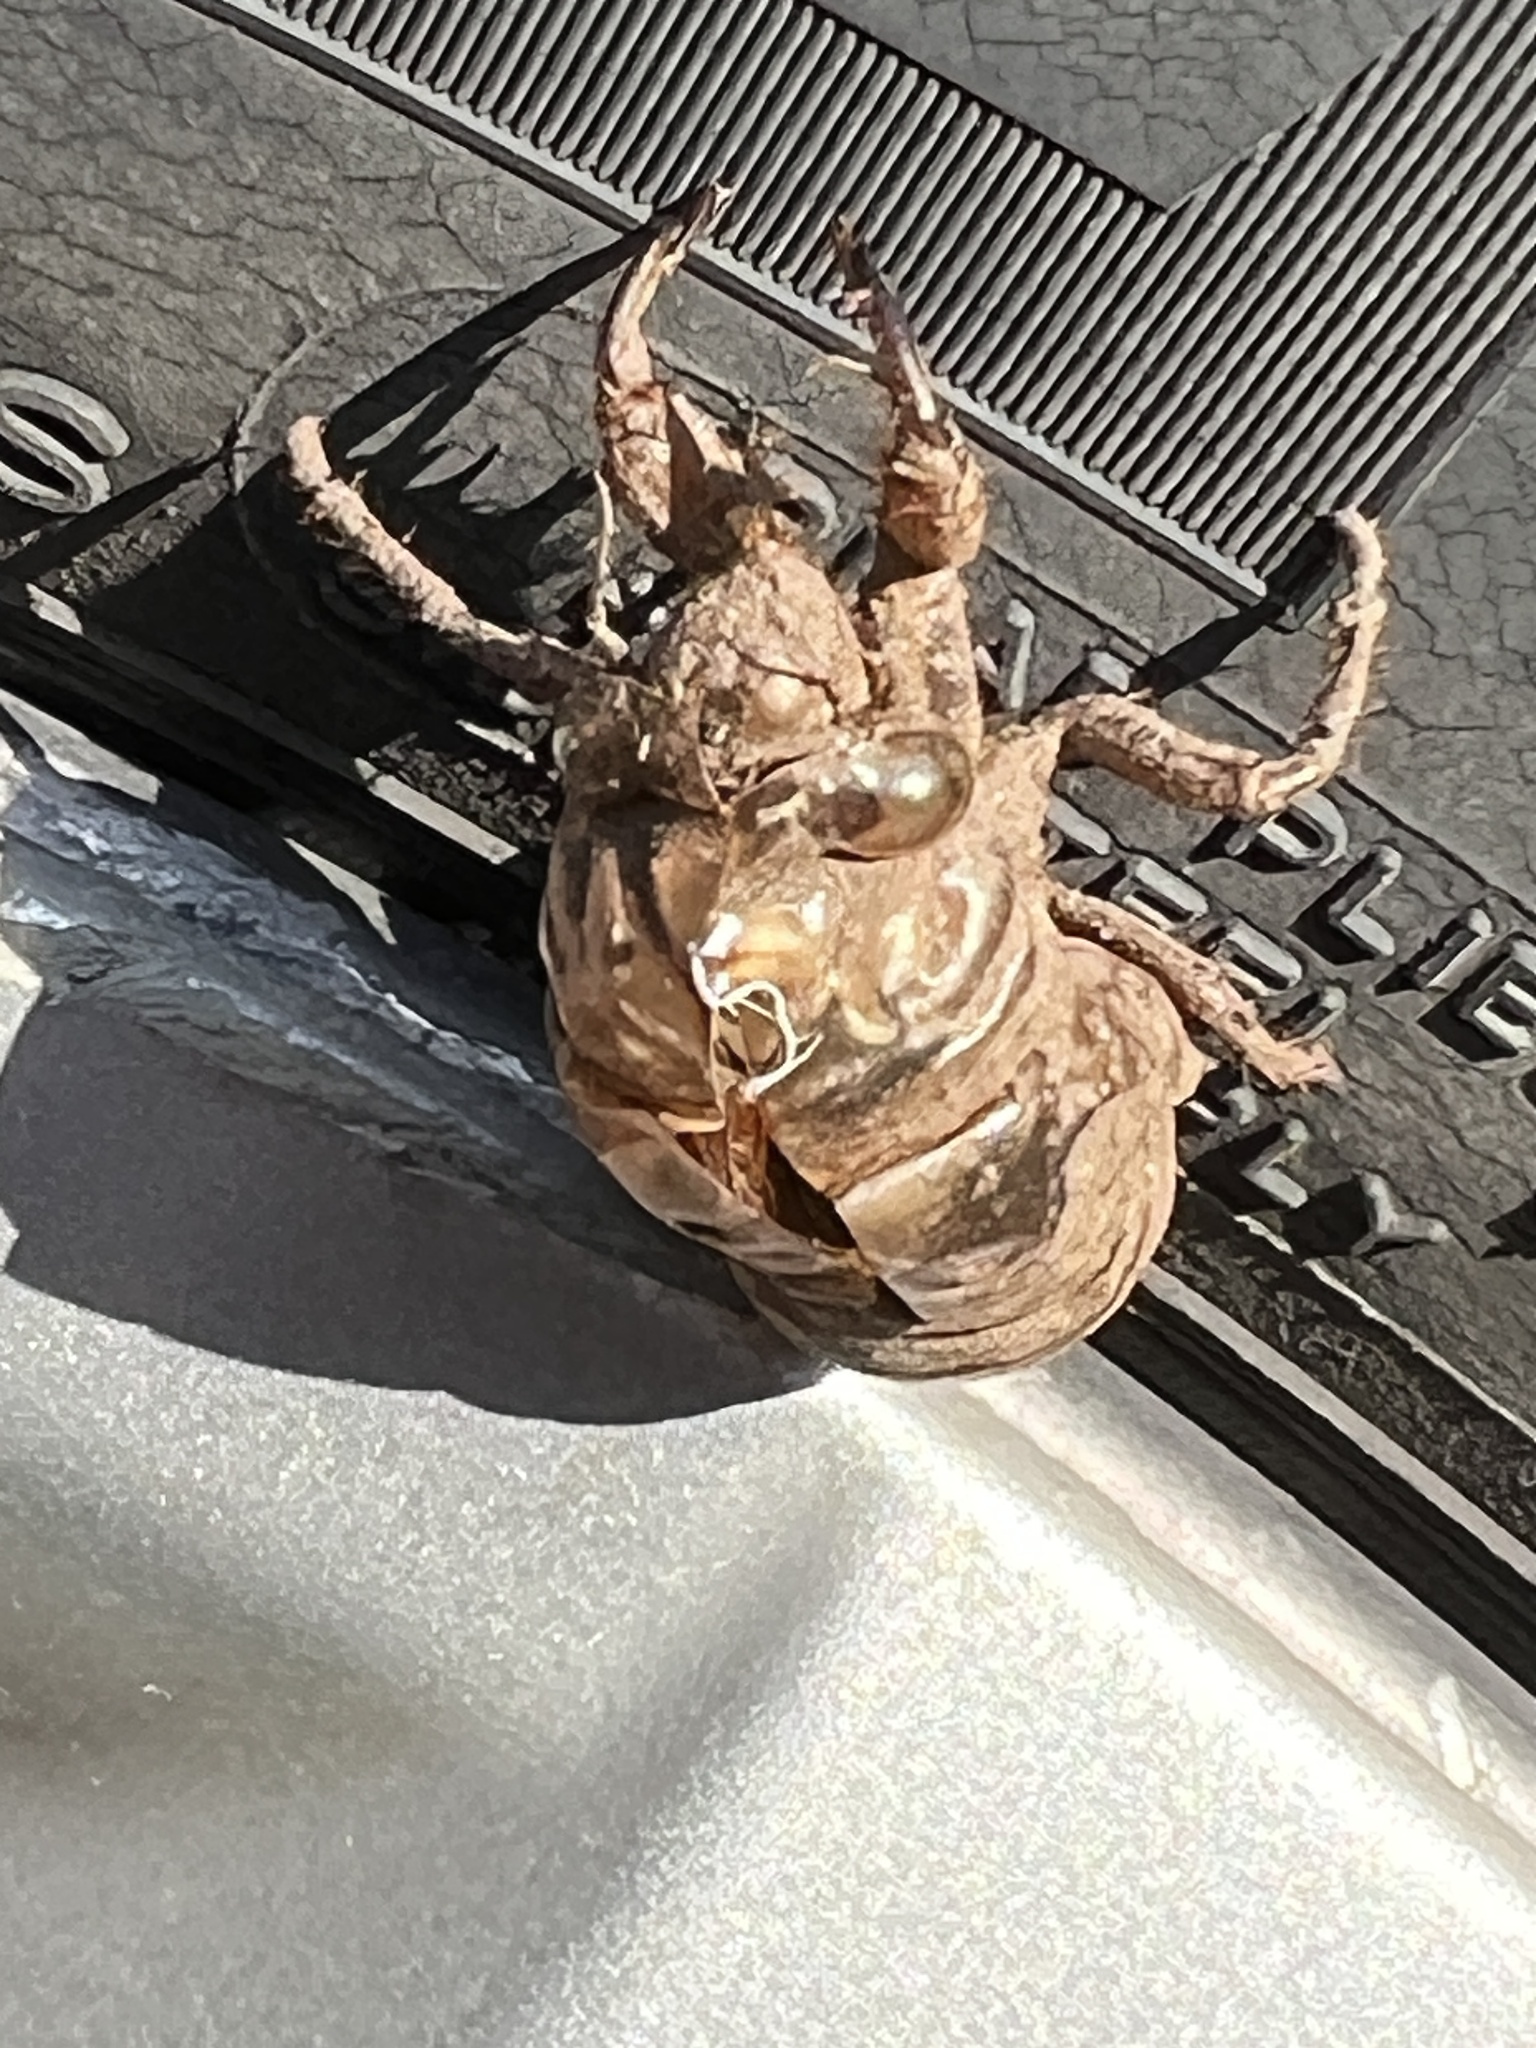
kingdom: Animalia
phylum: Arthropoda
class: Insecta
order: Hemiptera
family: Cicadidae
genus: Megatibicen
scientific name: Megatibicen resh
